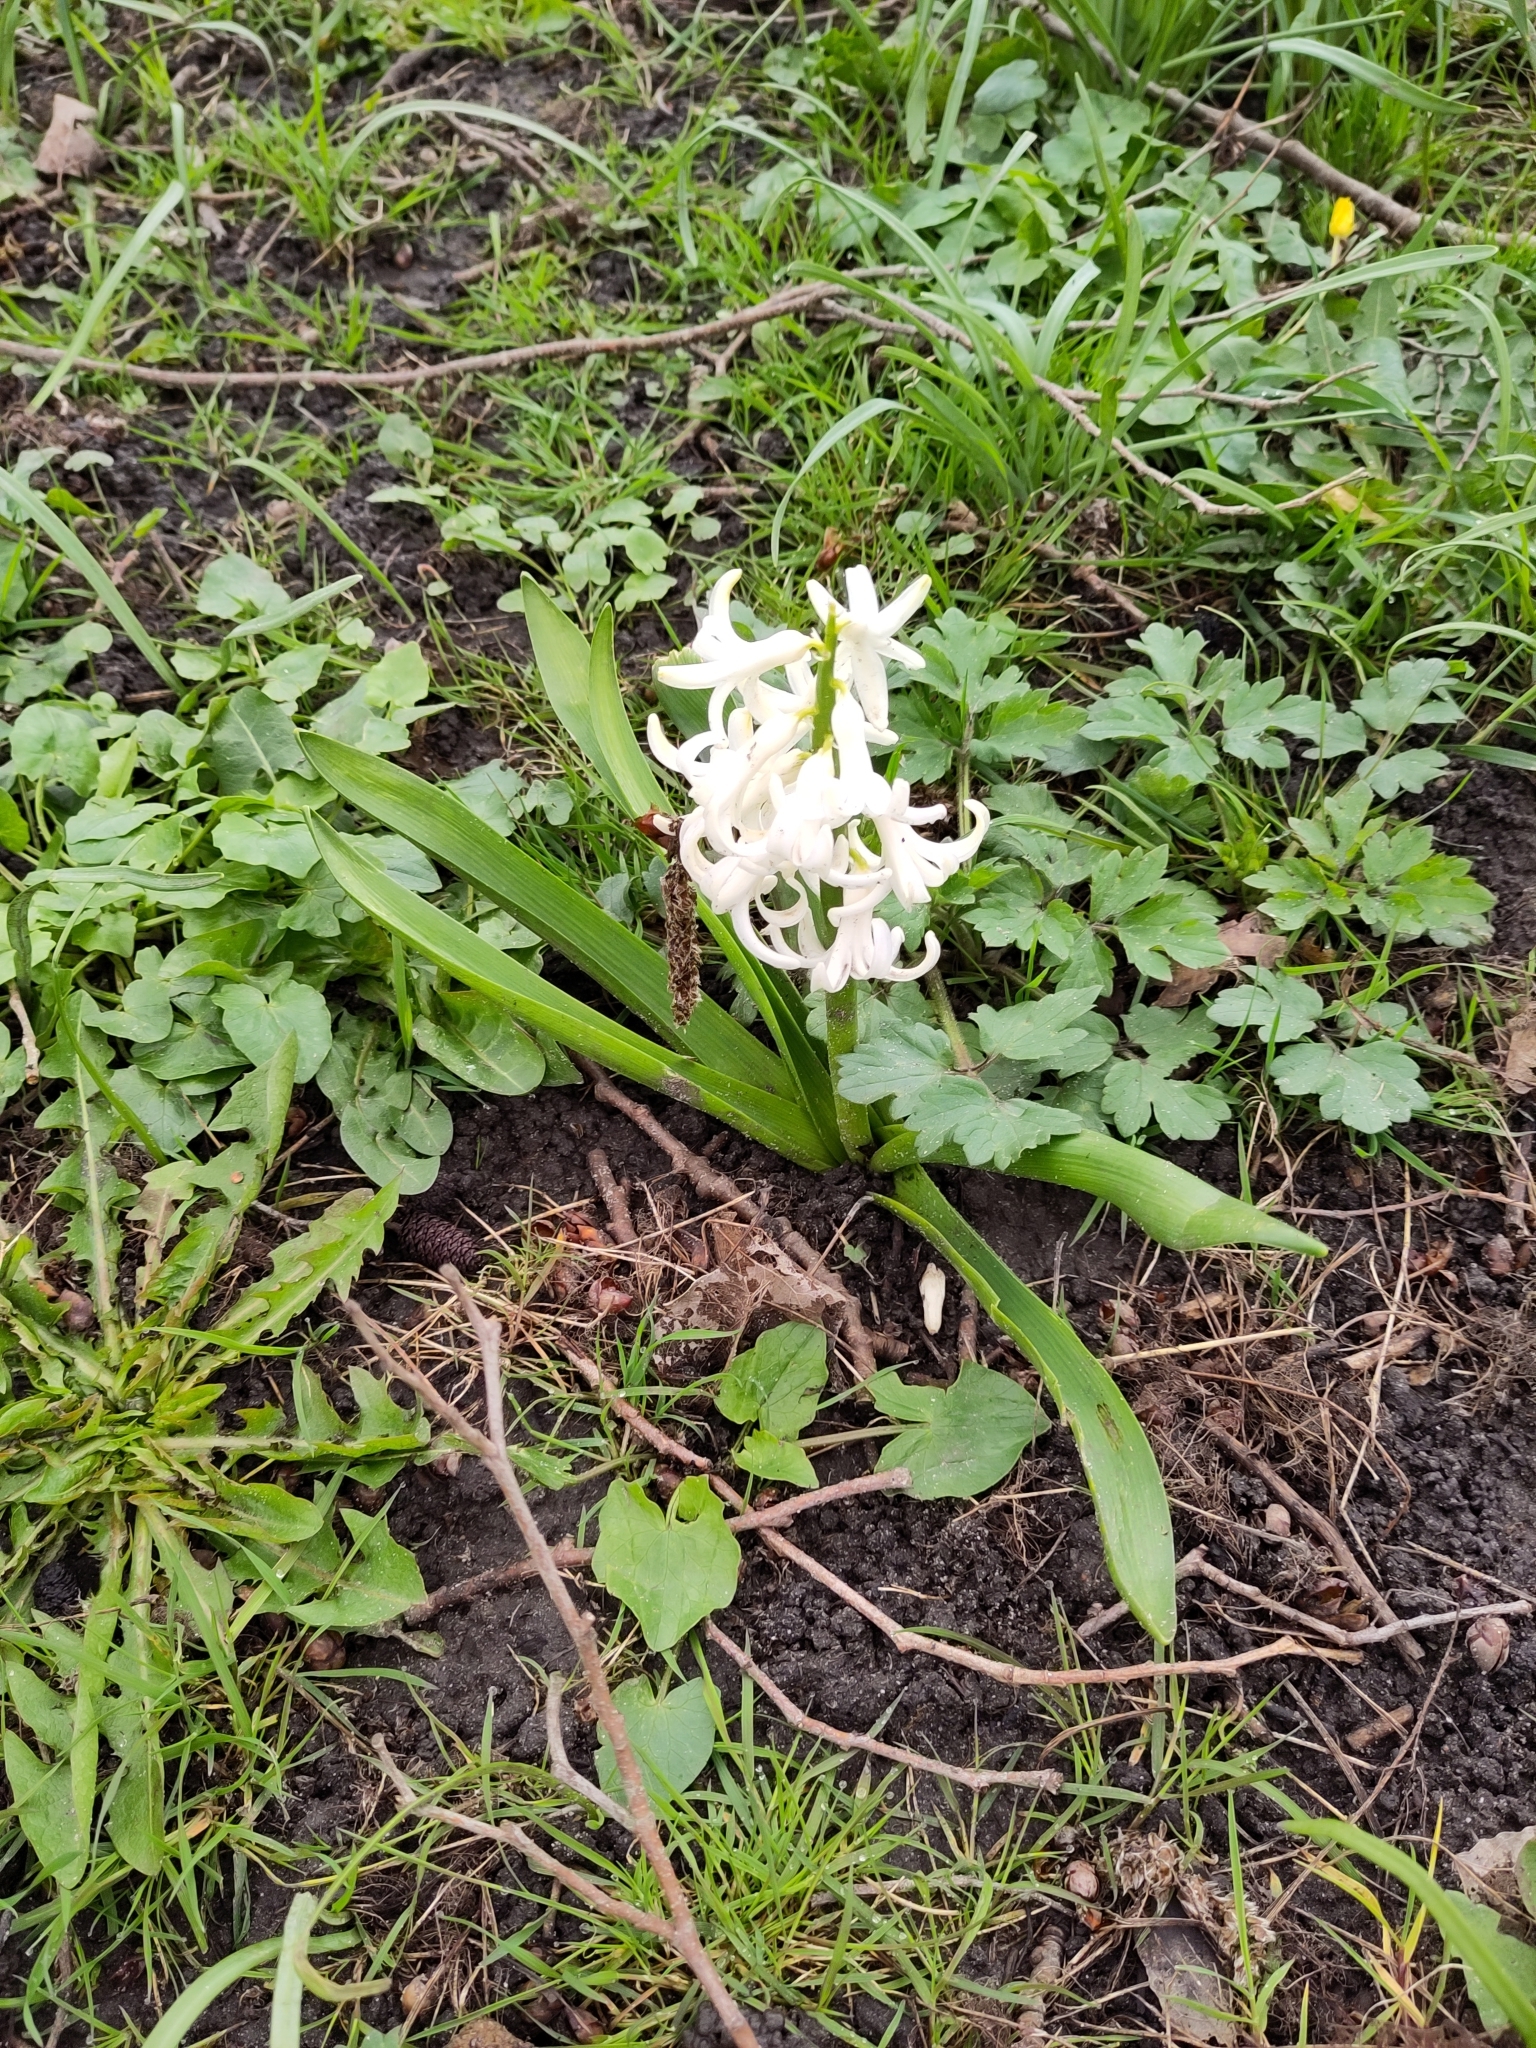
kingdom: Plantae
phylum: Tracheophyta
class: Liliopsida
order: Asparagales
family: Asparagaceae
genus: Hyacinthus
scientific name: Hyacinthus orientalis
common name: Hyacinth
